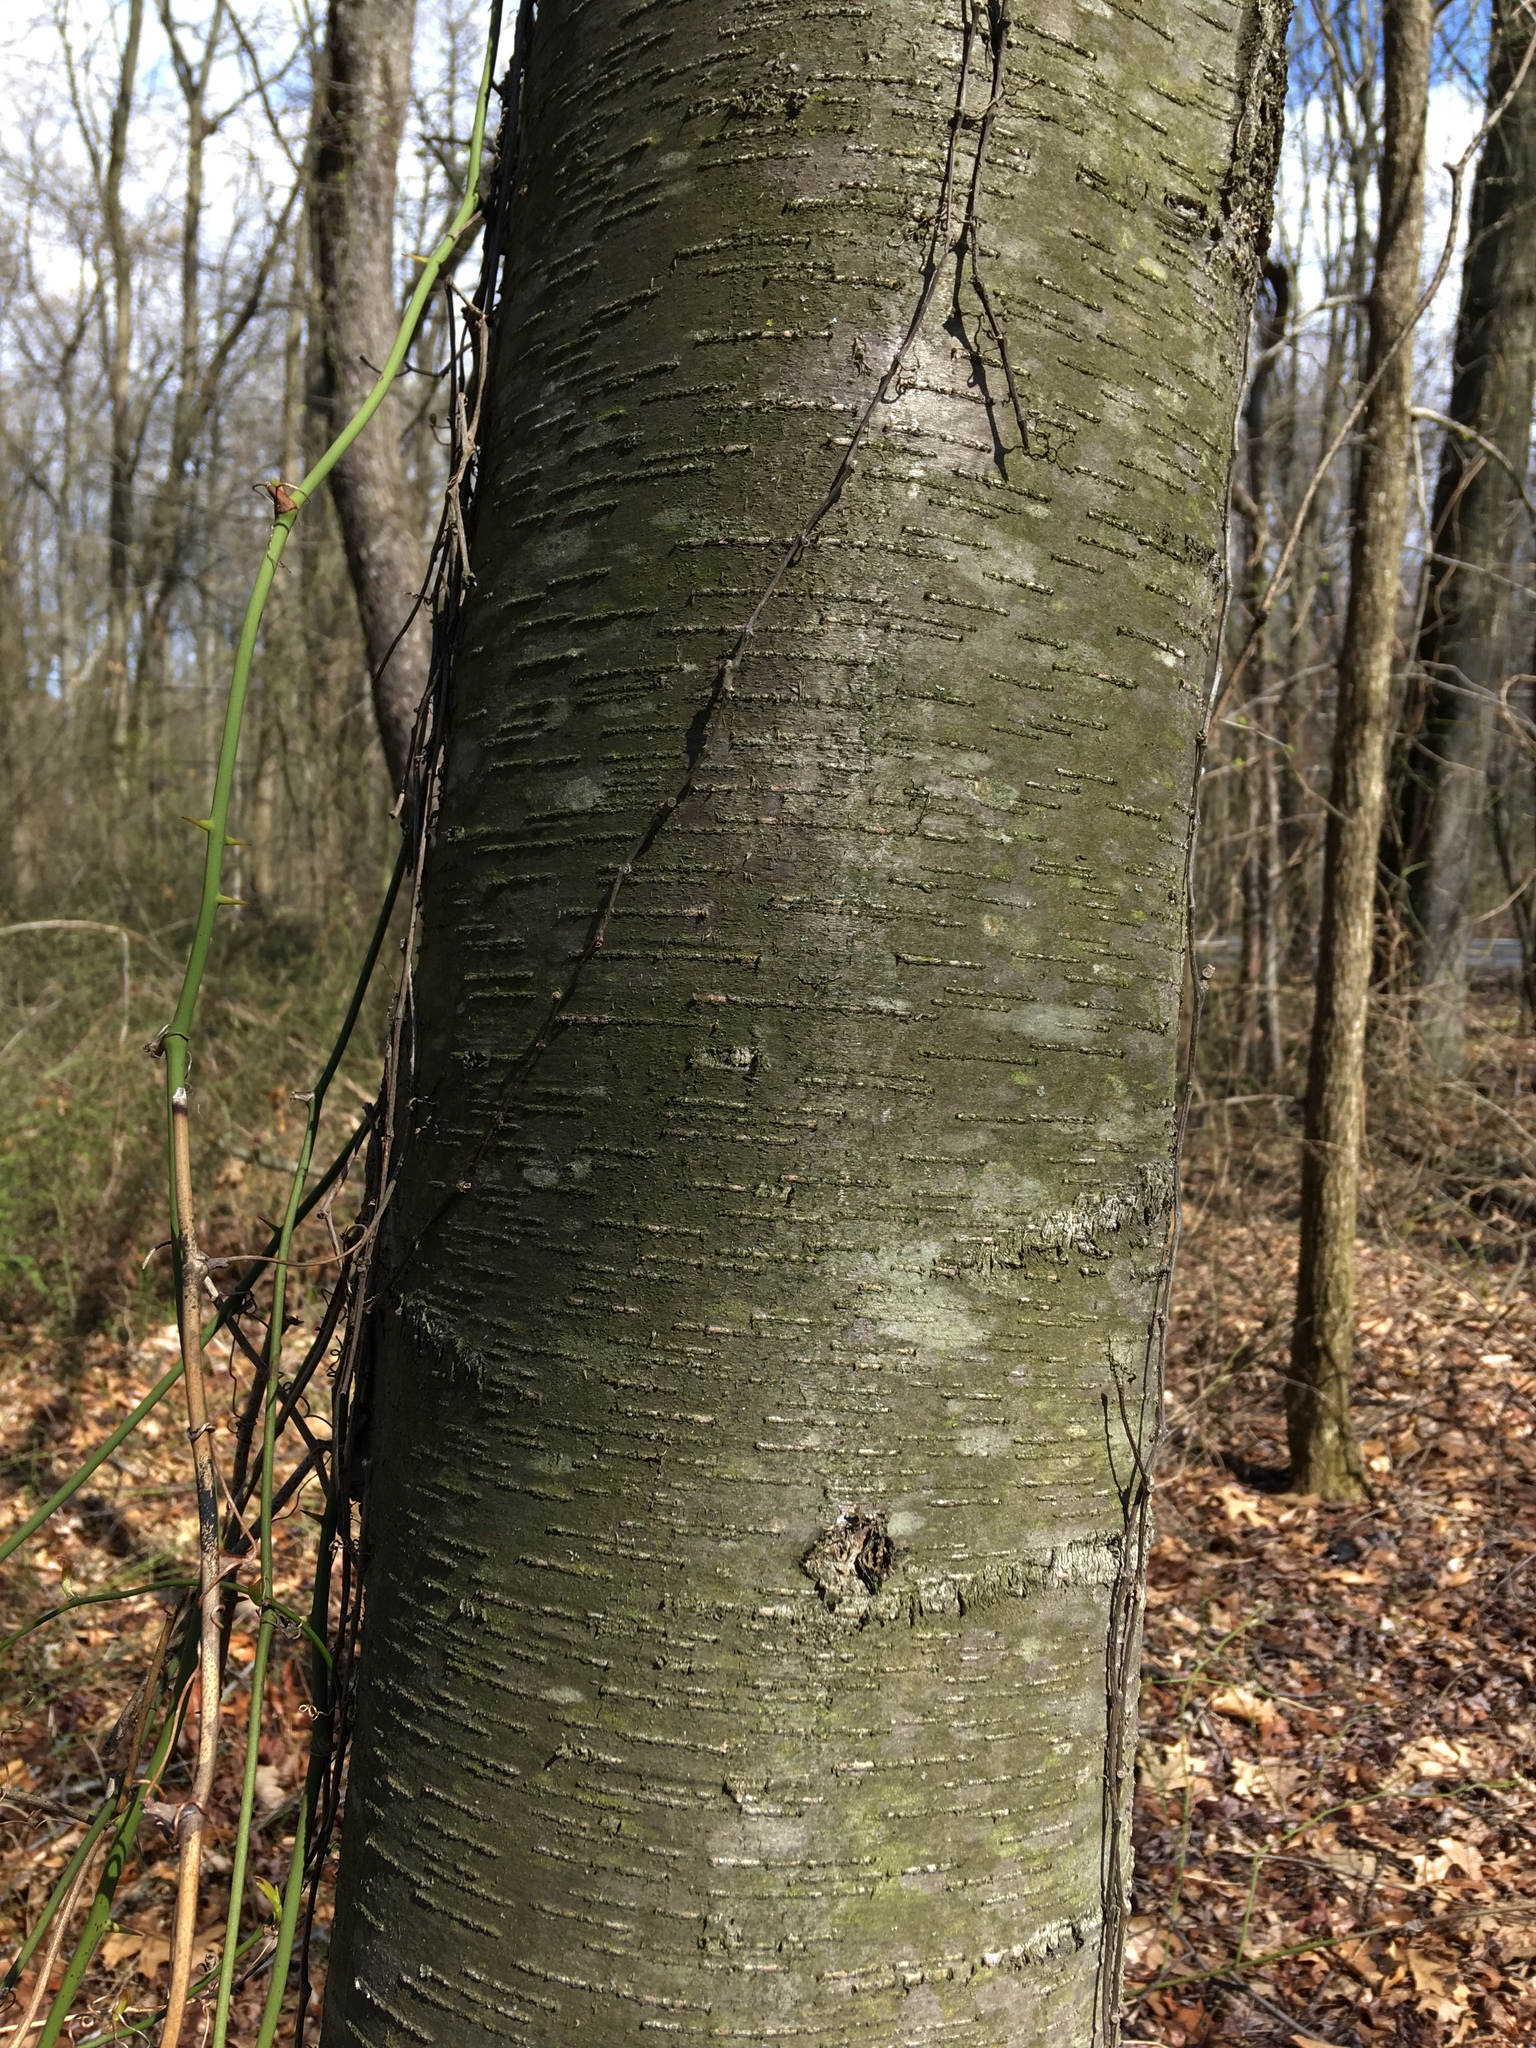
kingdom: Plantae
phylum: Tracheophyta
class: Magnoliopsida
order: Fagales
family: Betulaceae
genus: Betula
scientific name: Betula lenta
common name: Black birch
